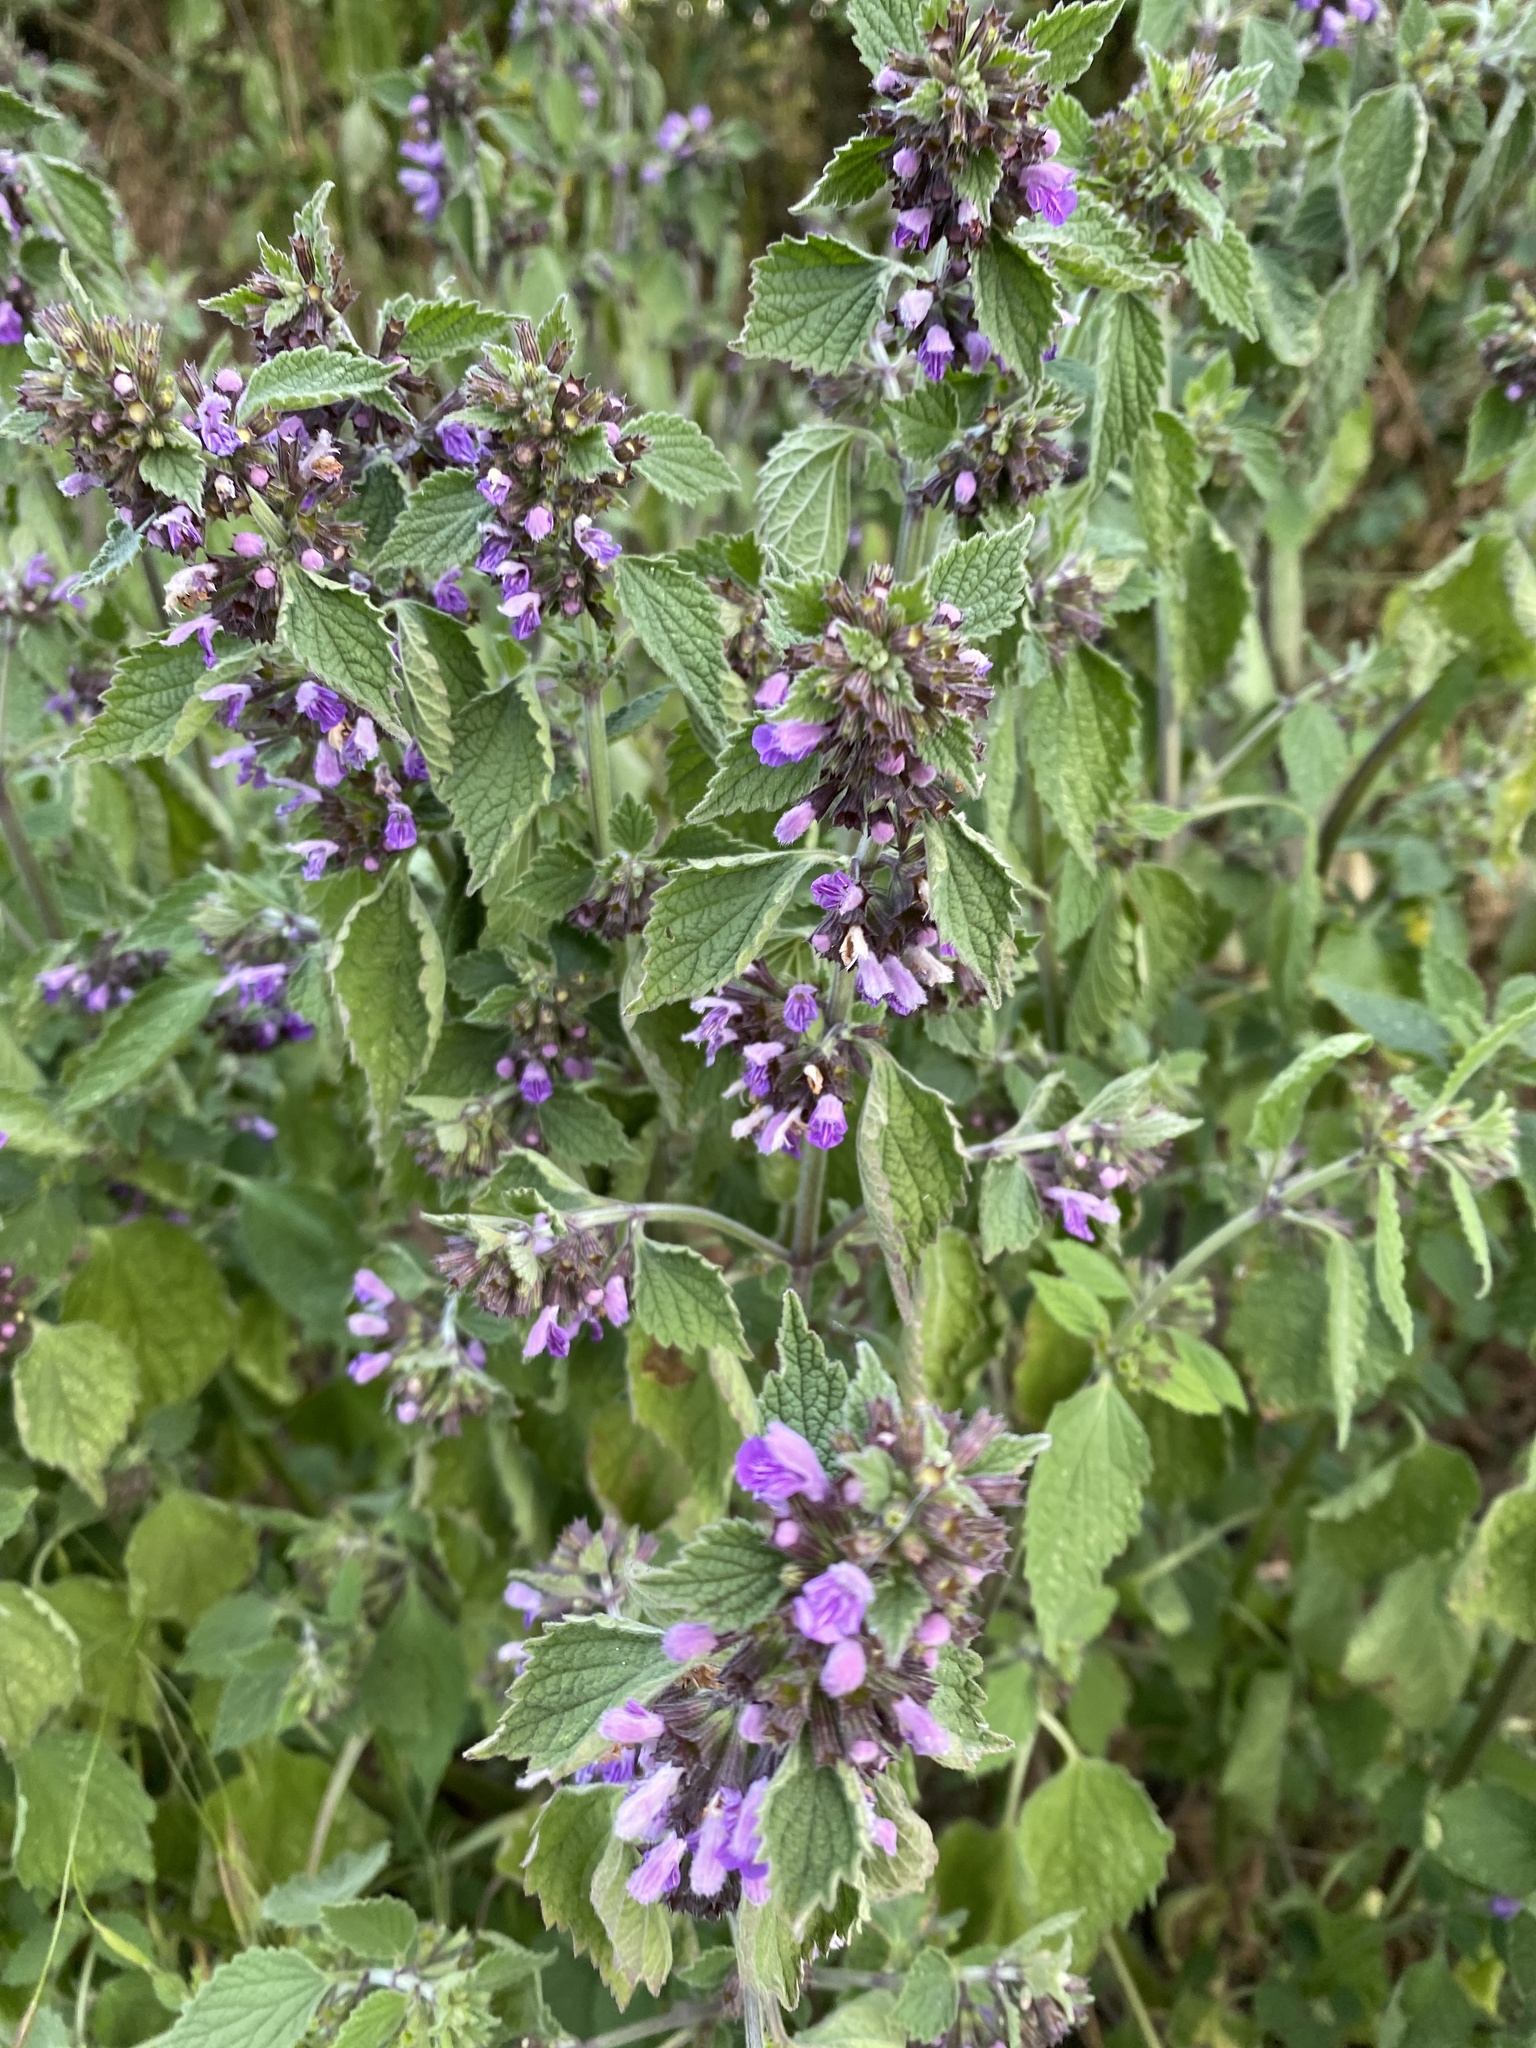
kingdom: Plantae
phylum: Tracheophyta
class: Magnoliopsida
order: Lamiales
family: Lamiaceae
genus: Ballota
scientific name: Ballota nigra
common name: Black horehound
